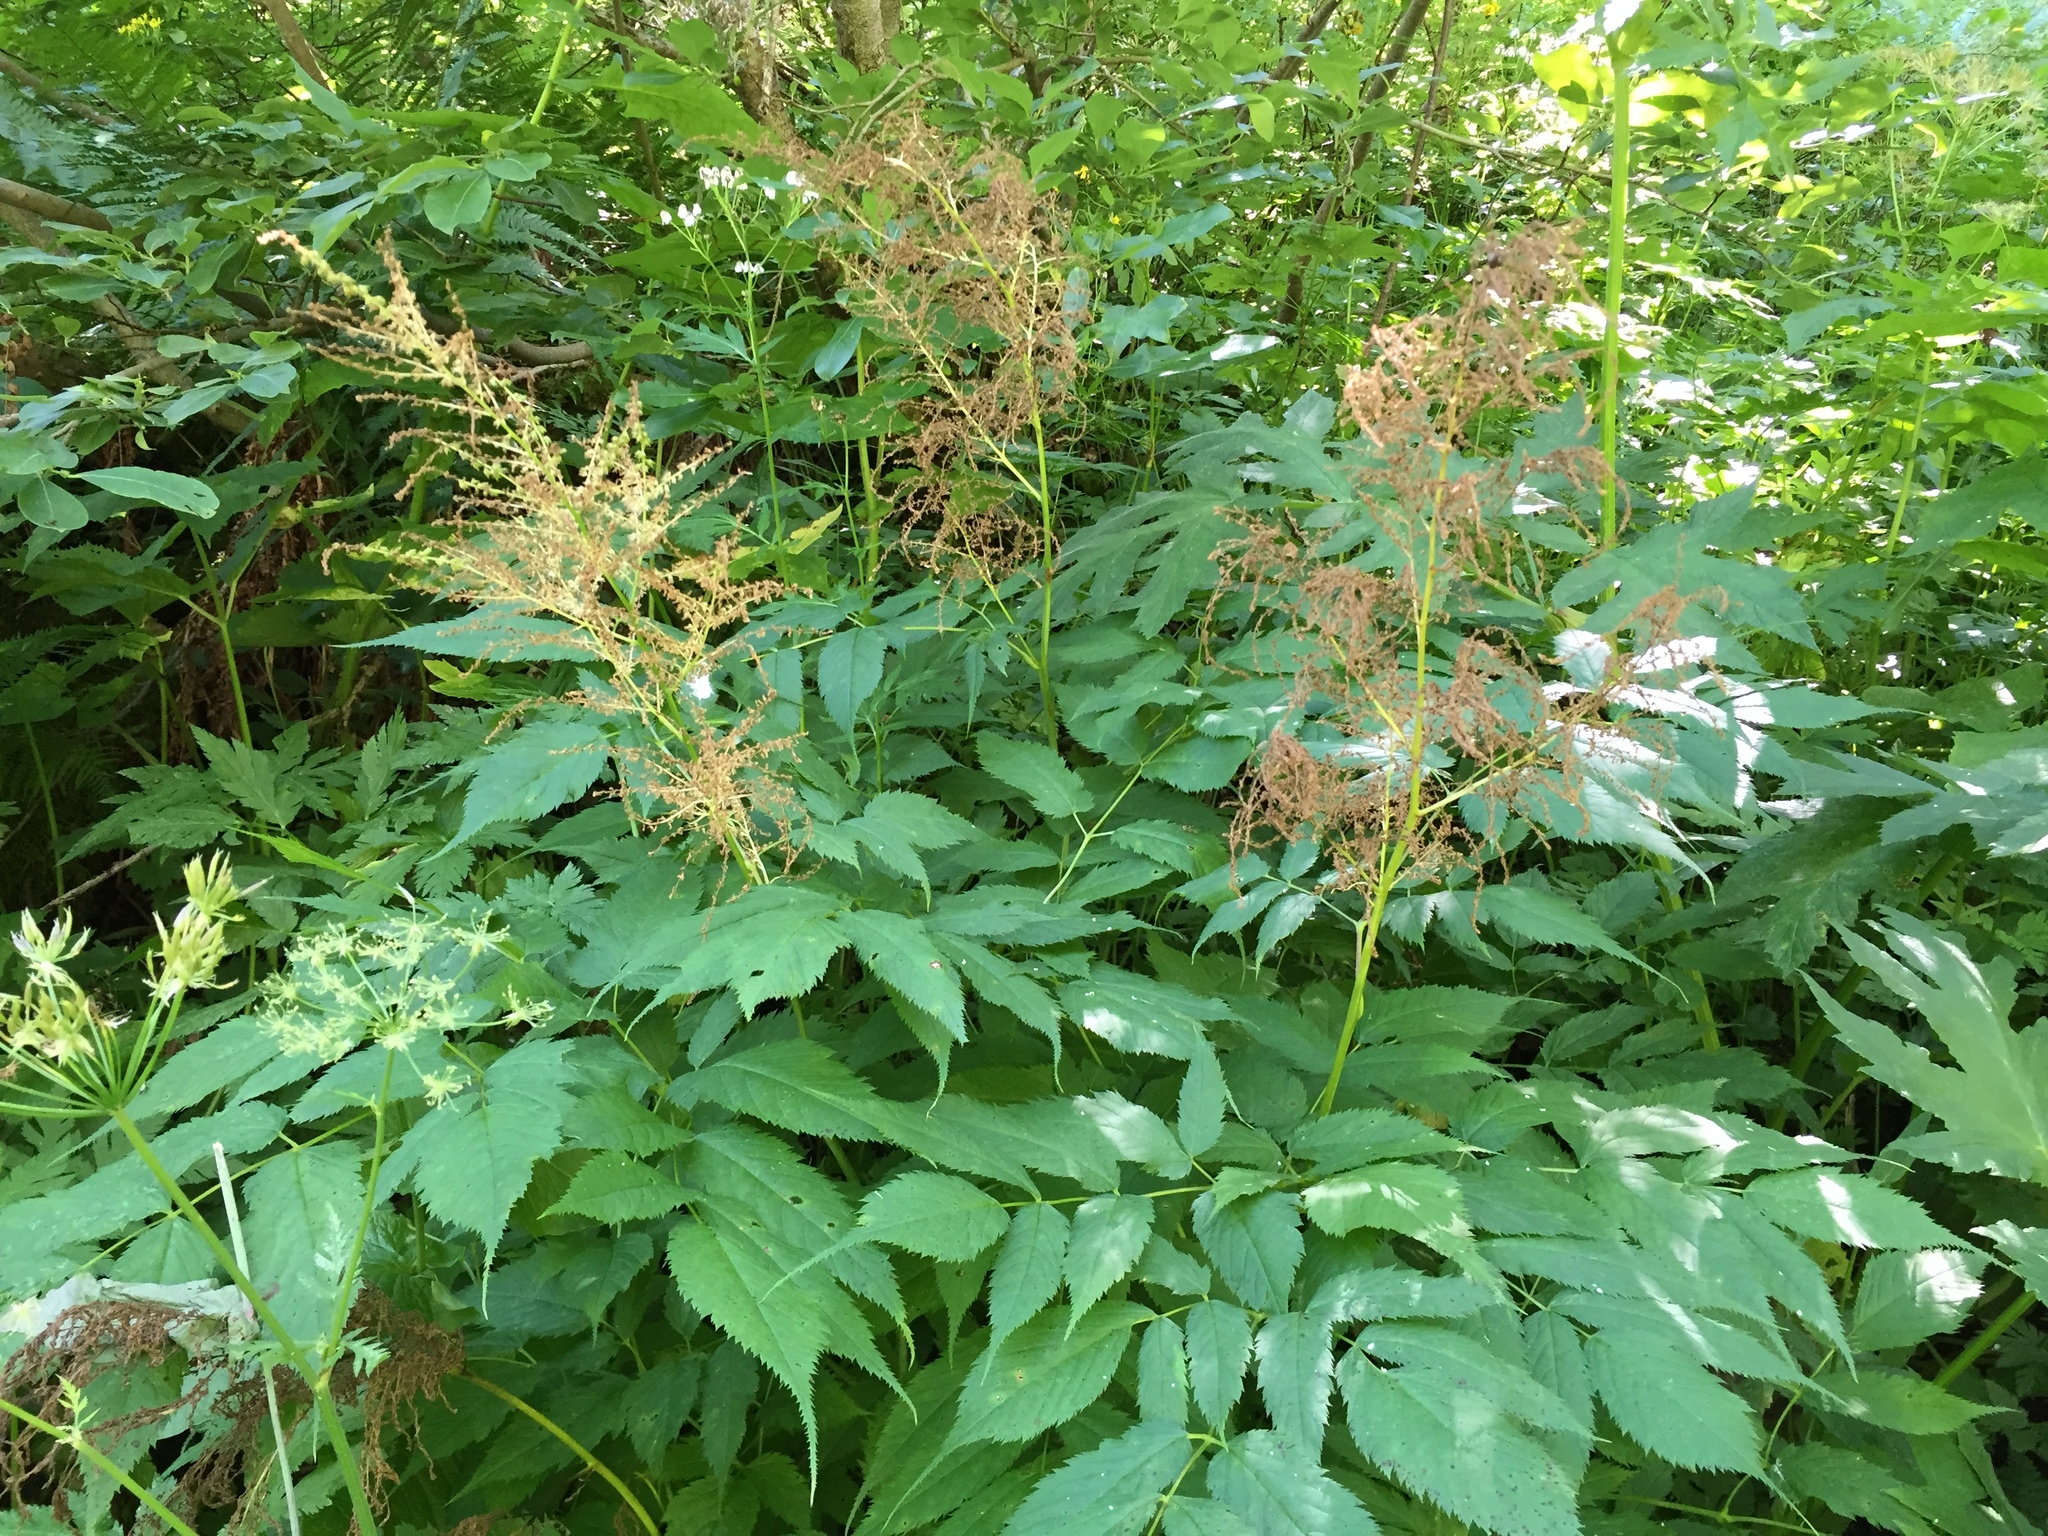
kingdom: Plantae
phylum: Tracheophyta
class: Magnoliopsida
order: Rosales
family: Rosaceae
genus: Aruncus
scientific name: Aruncus dioicus
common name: Buck's-beard
